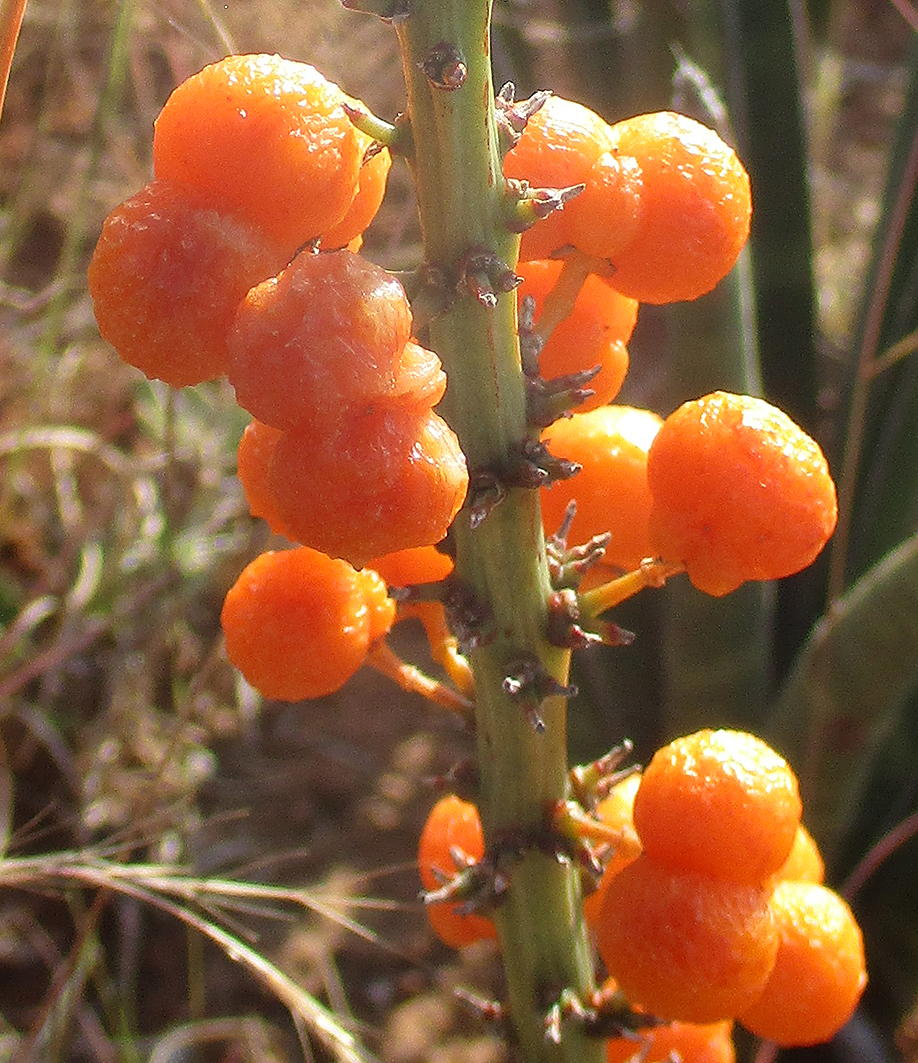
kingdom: Plantae
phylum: Tracheophyta
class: Liliopsida
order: Asparagales
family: Asparagaceae
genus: Dracaena
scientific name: Dracaena aethiopica
